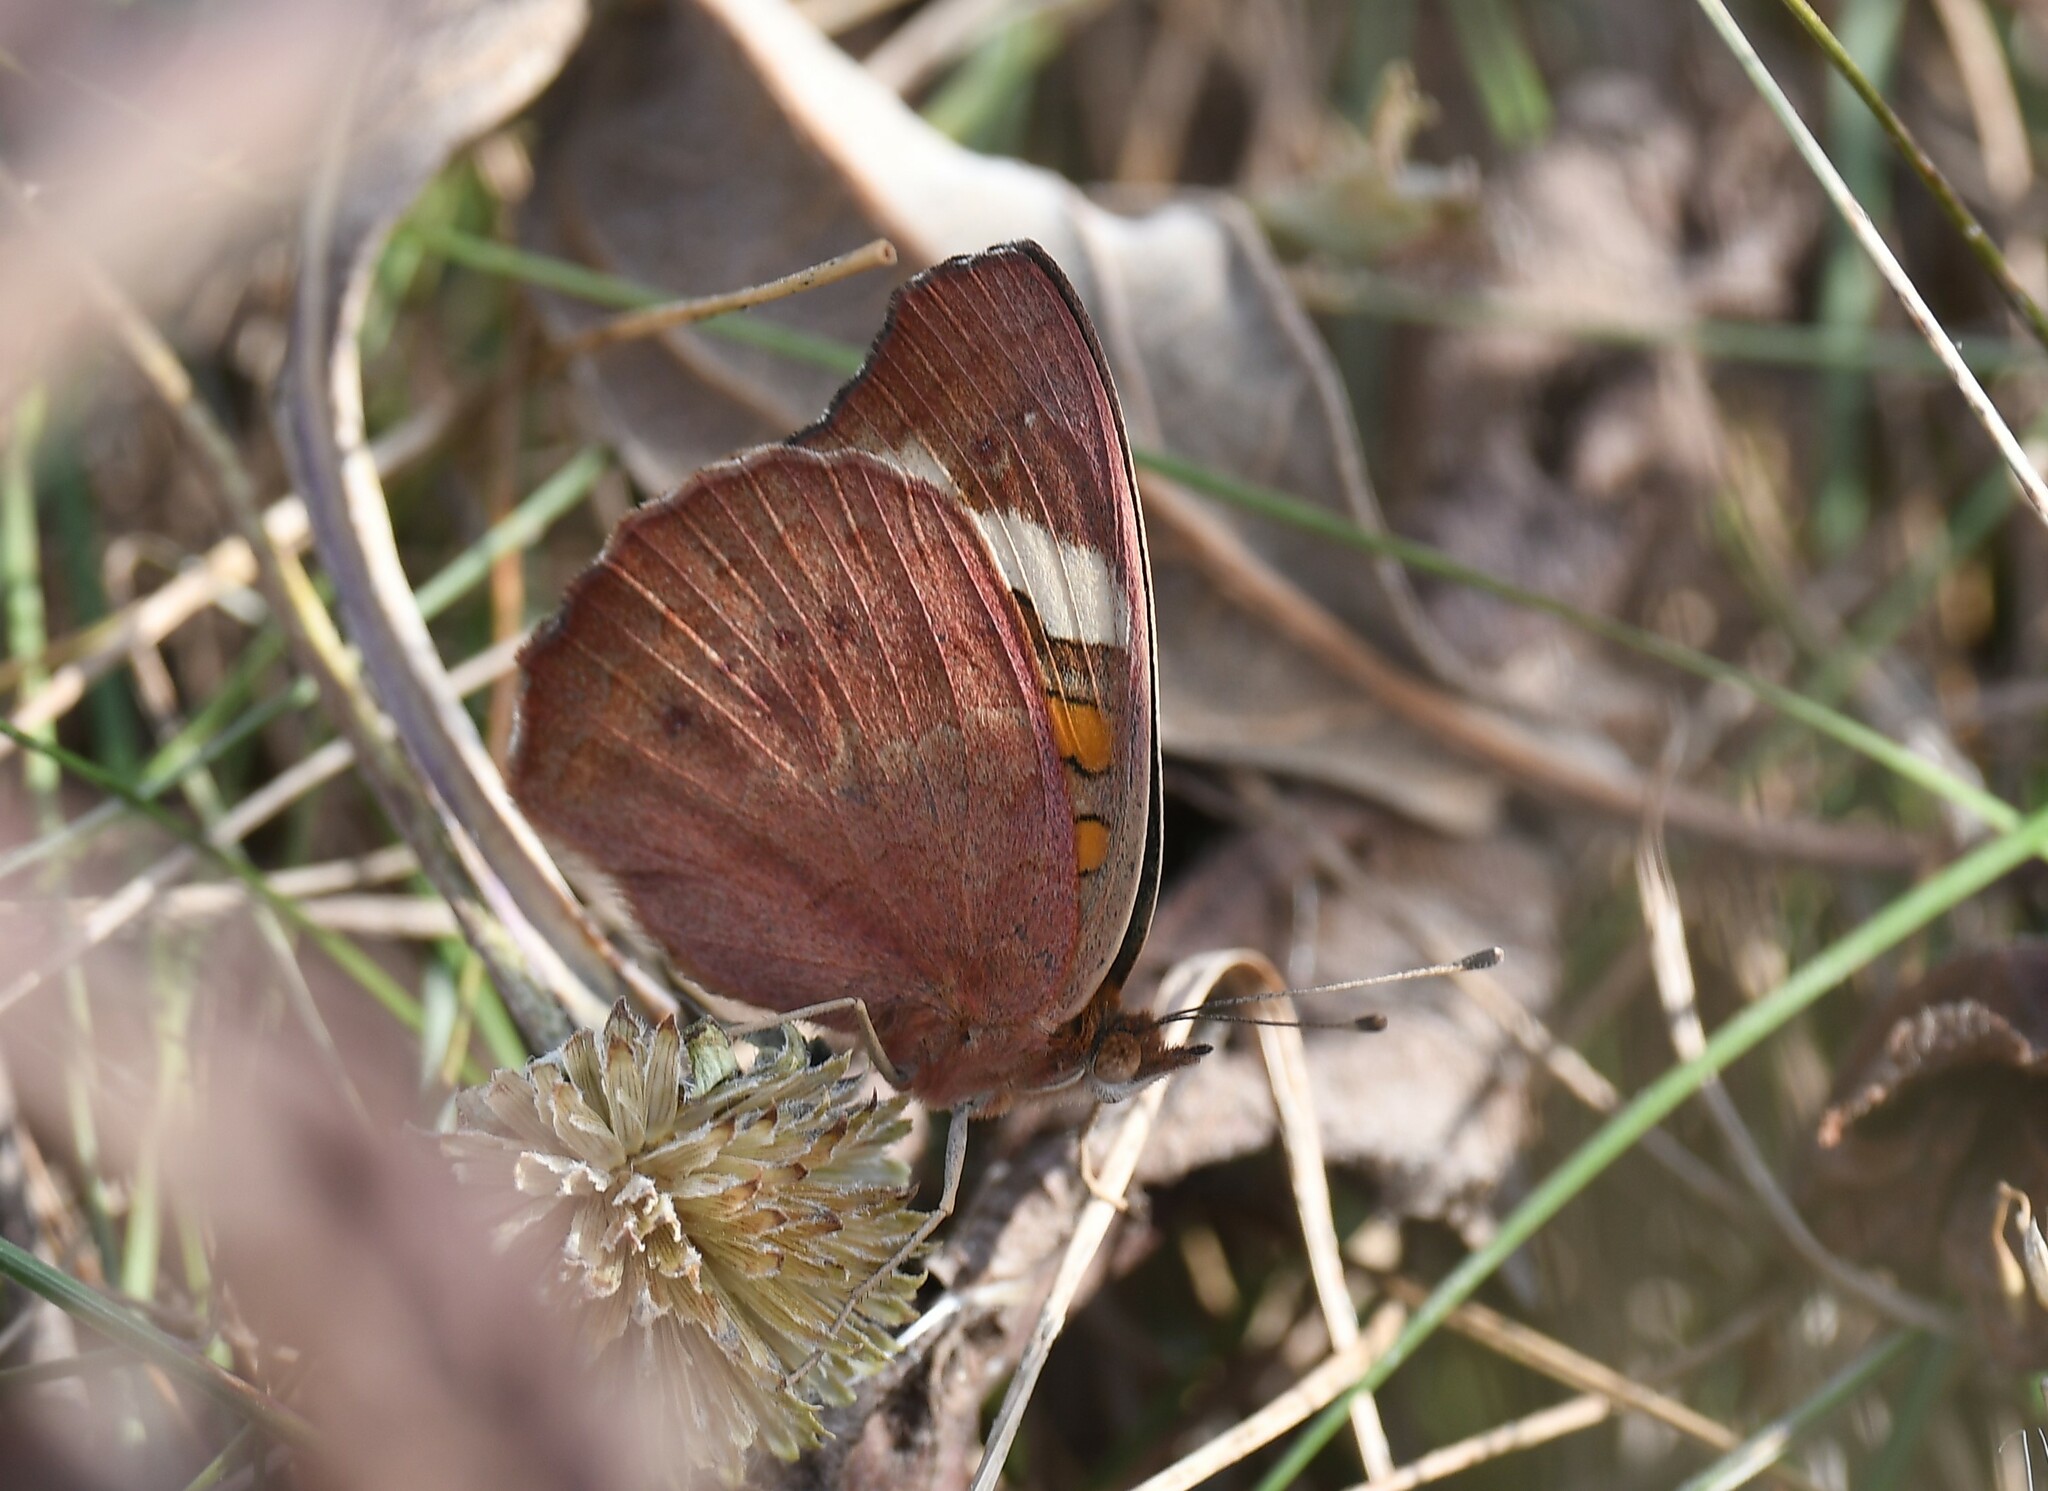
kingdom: Animalia
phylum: Arthropoda
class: Insecta
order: Lepidoptera
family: Nymphalidae
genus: Junonia
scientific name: Junonia coenia
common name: Common buckeye
